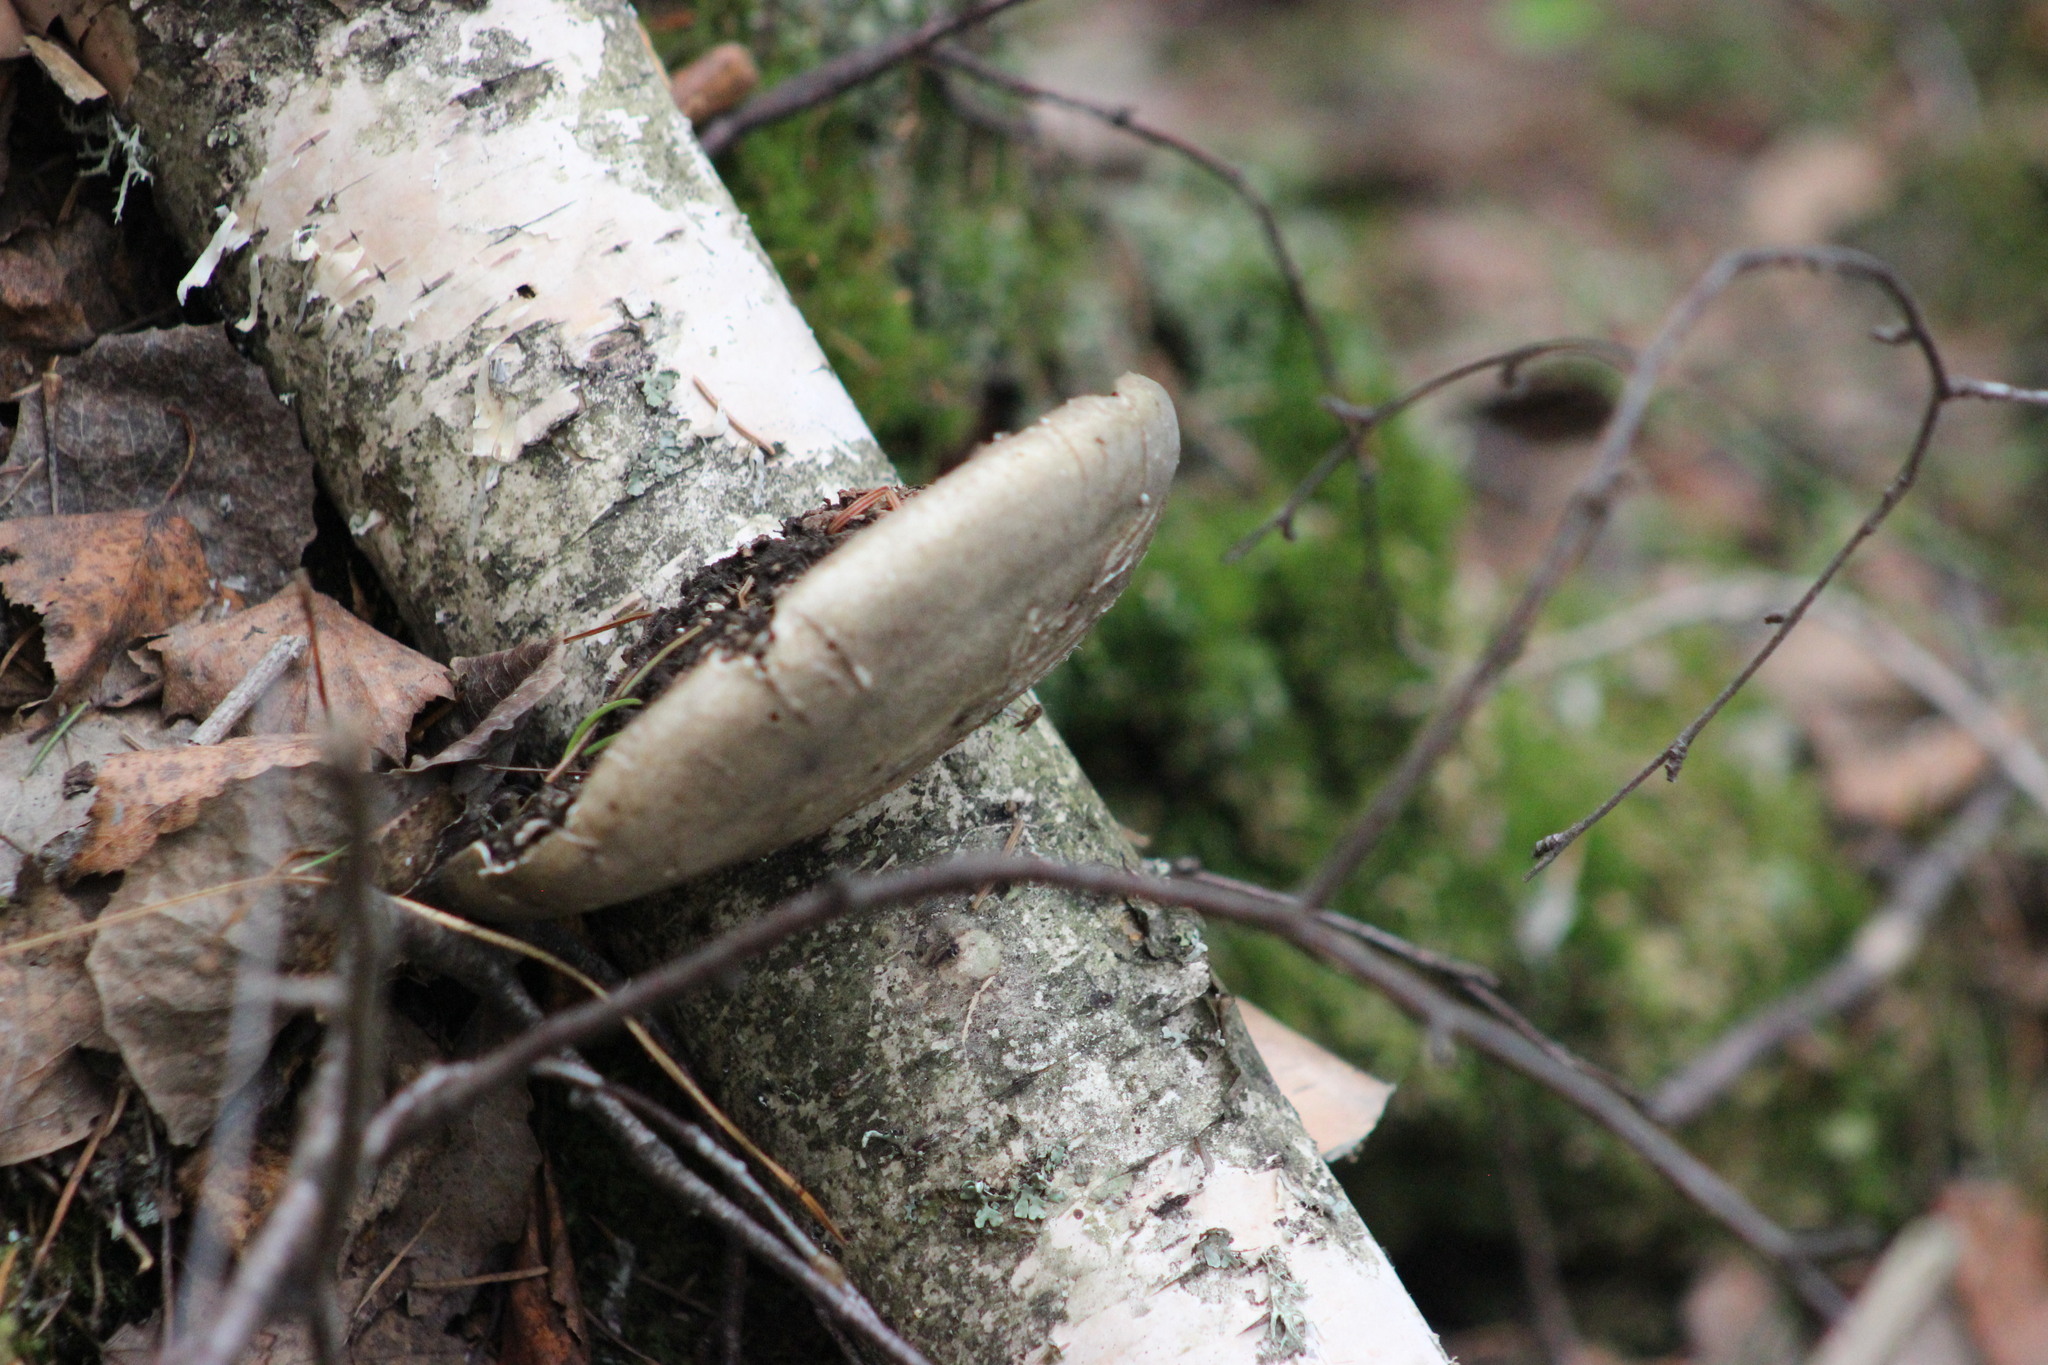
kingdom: Fungi
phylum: Basidiomycota
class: Agaricomycetes
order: Polyporales
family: Fomitopsidaceae
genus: Fomitopsis
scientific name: Fomitopsis betulina
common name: Birch polypore
